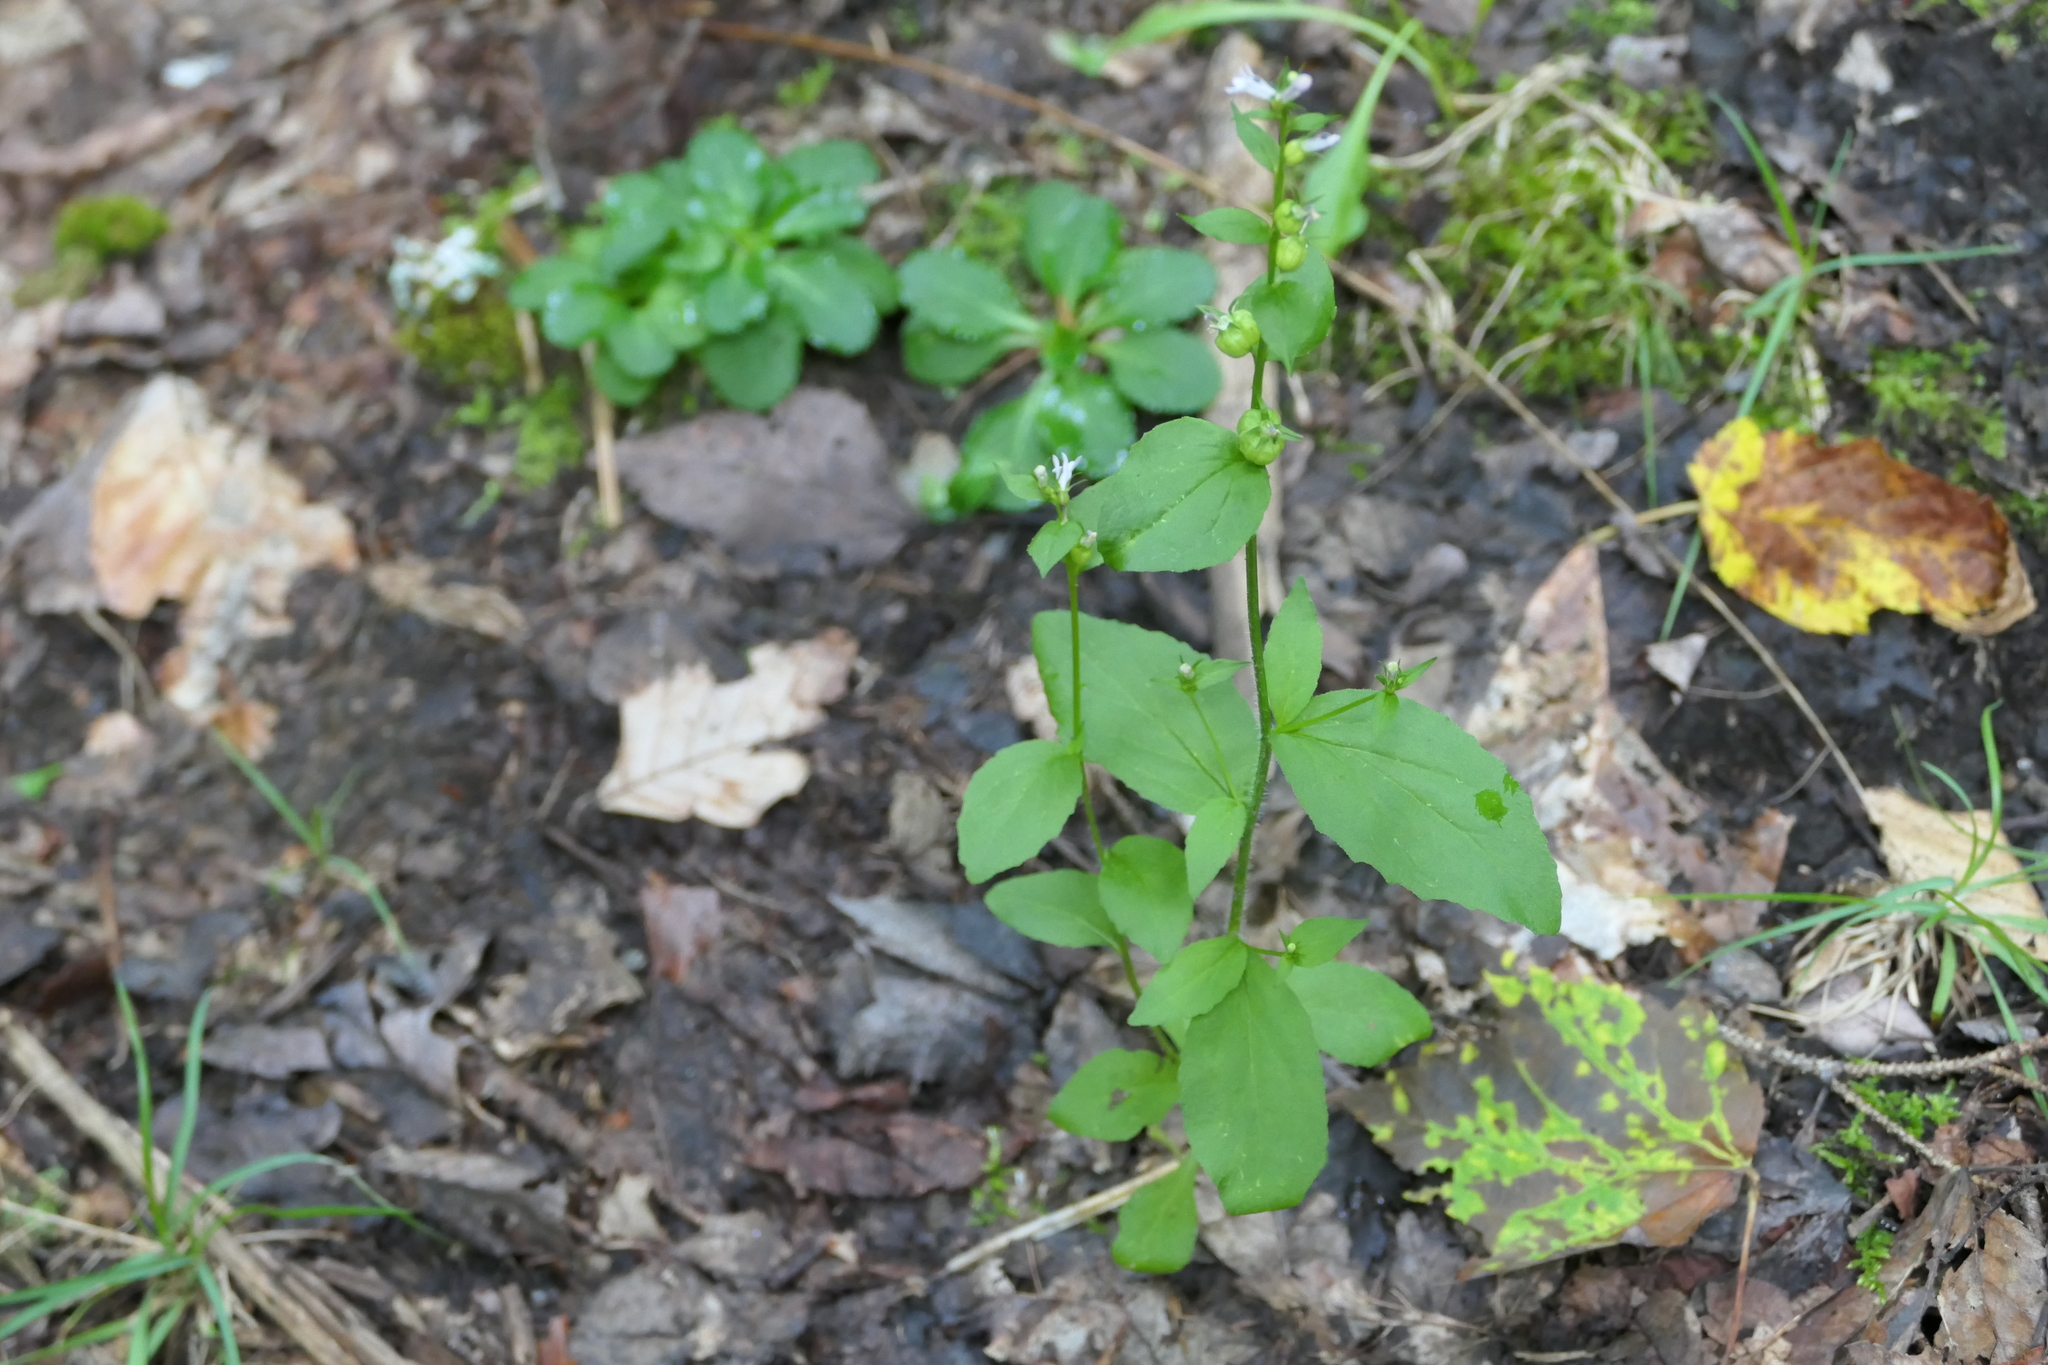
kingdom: Plantae
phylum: Tracheophyta
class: Magnoliopsida
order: Asterales
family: Campanulaceae
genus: Lobelia
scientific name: Lobelia inflata
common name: Indian tobacco
